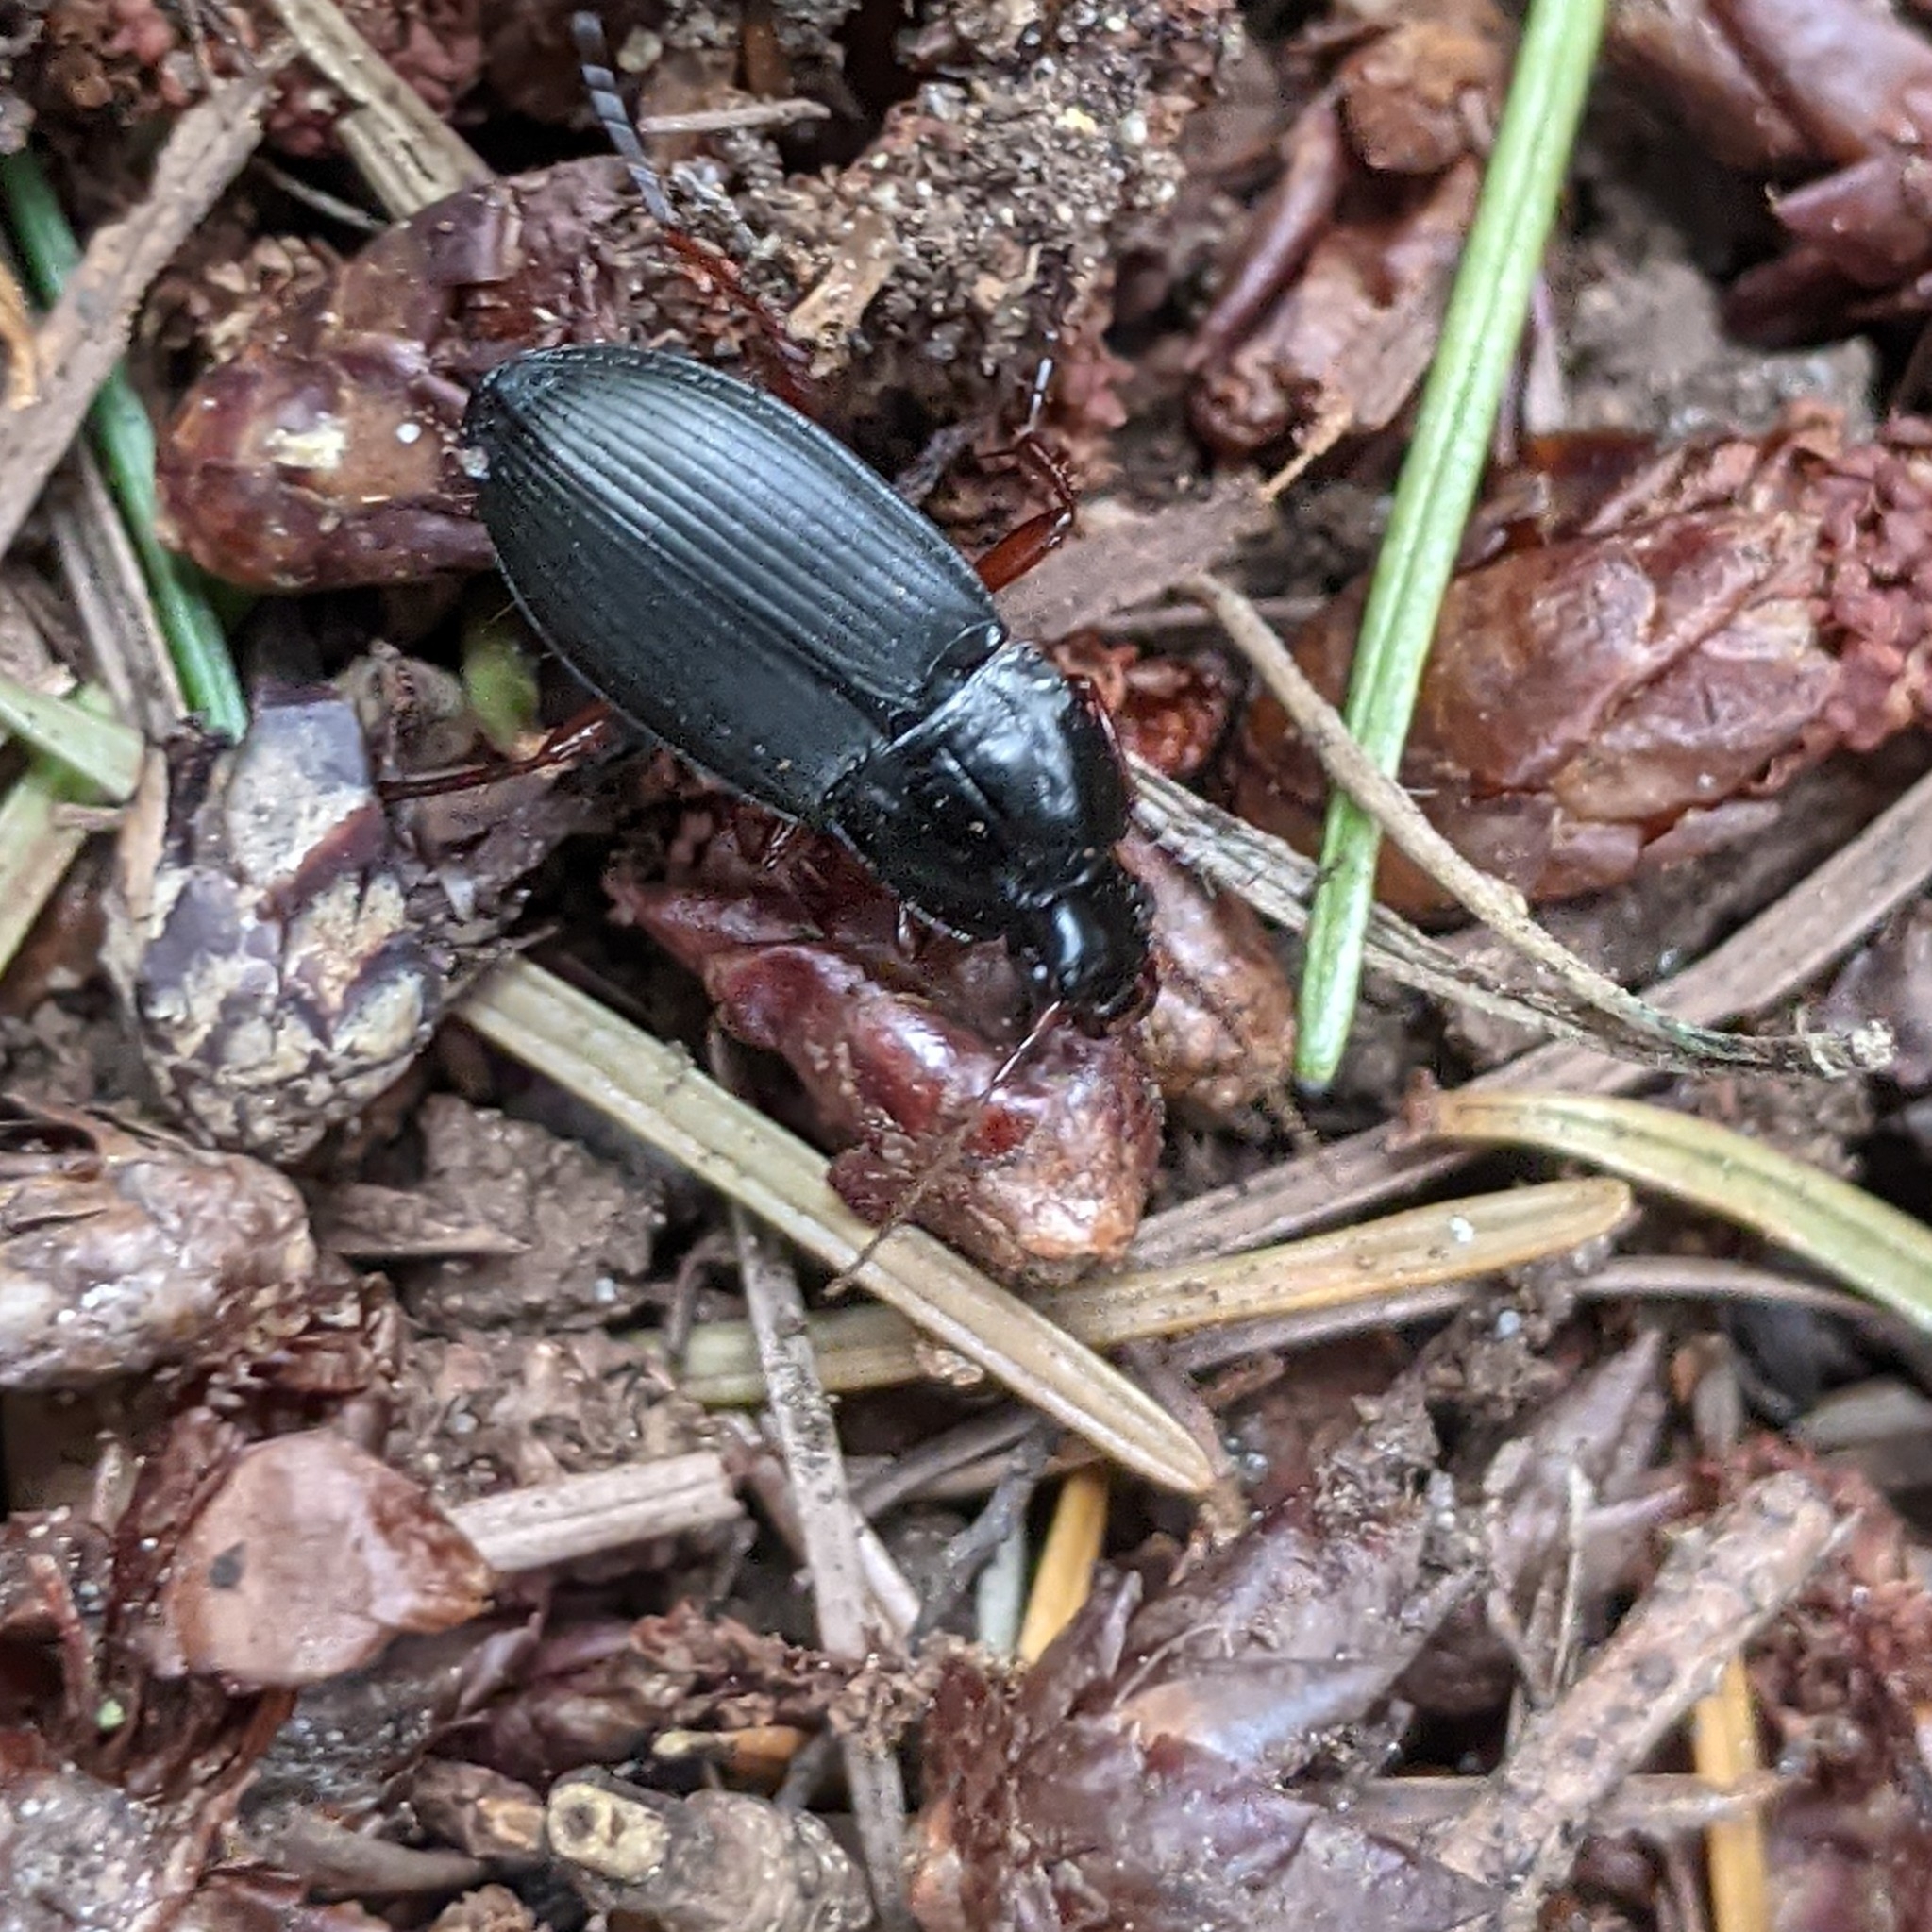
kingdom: Animalia
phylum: Arthropoda
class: Insecta
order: Coleoptera
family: Carabidae
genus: Calathus
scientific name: Calathus fuscipes
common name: Dark-footed harp ground beetle
